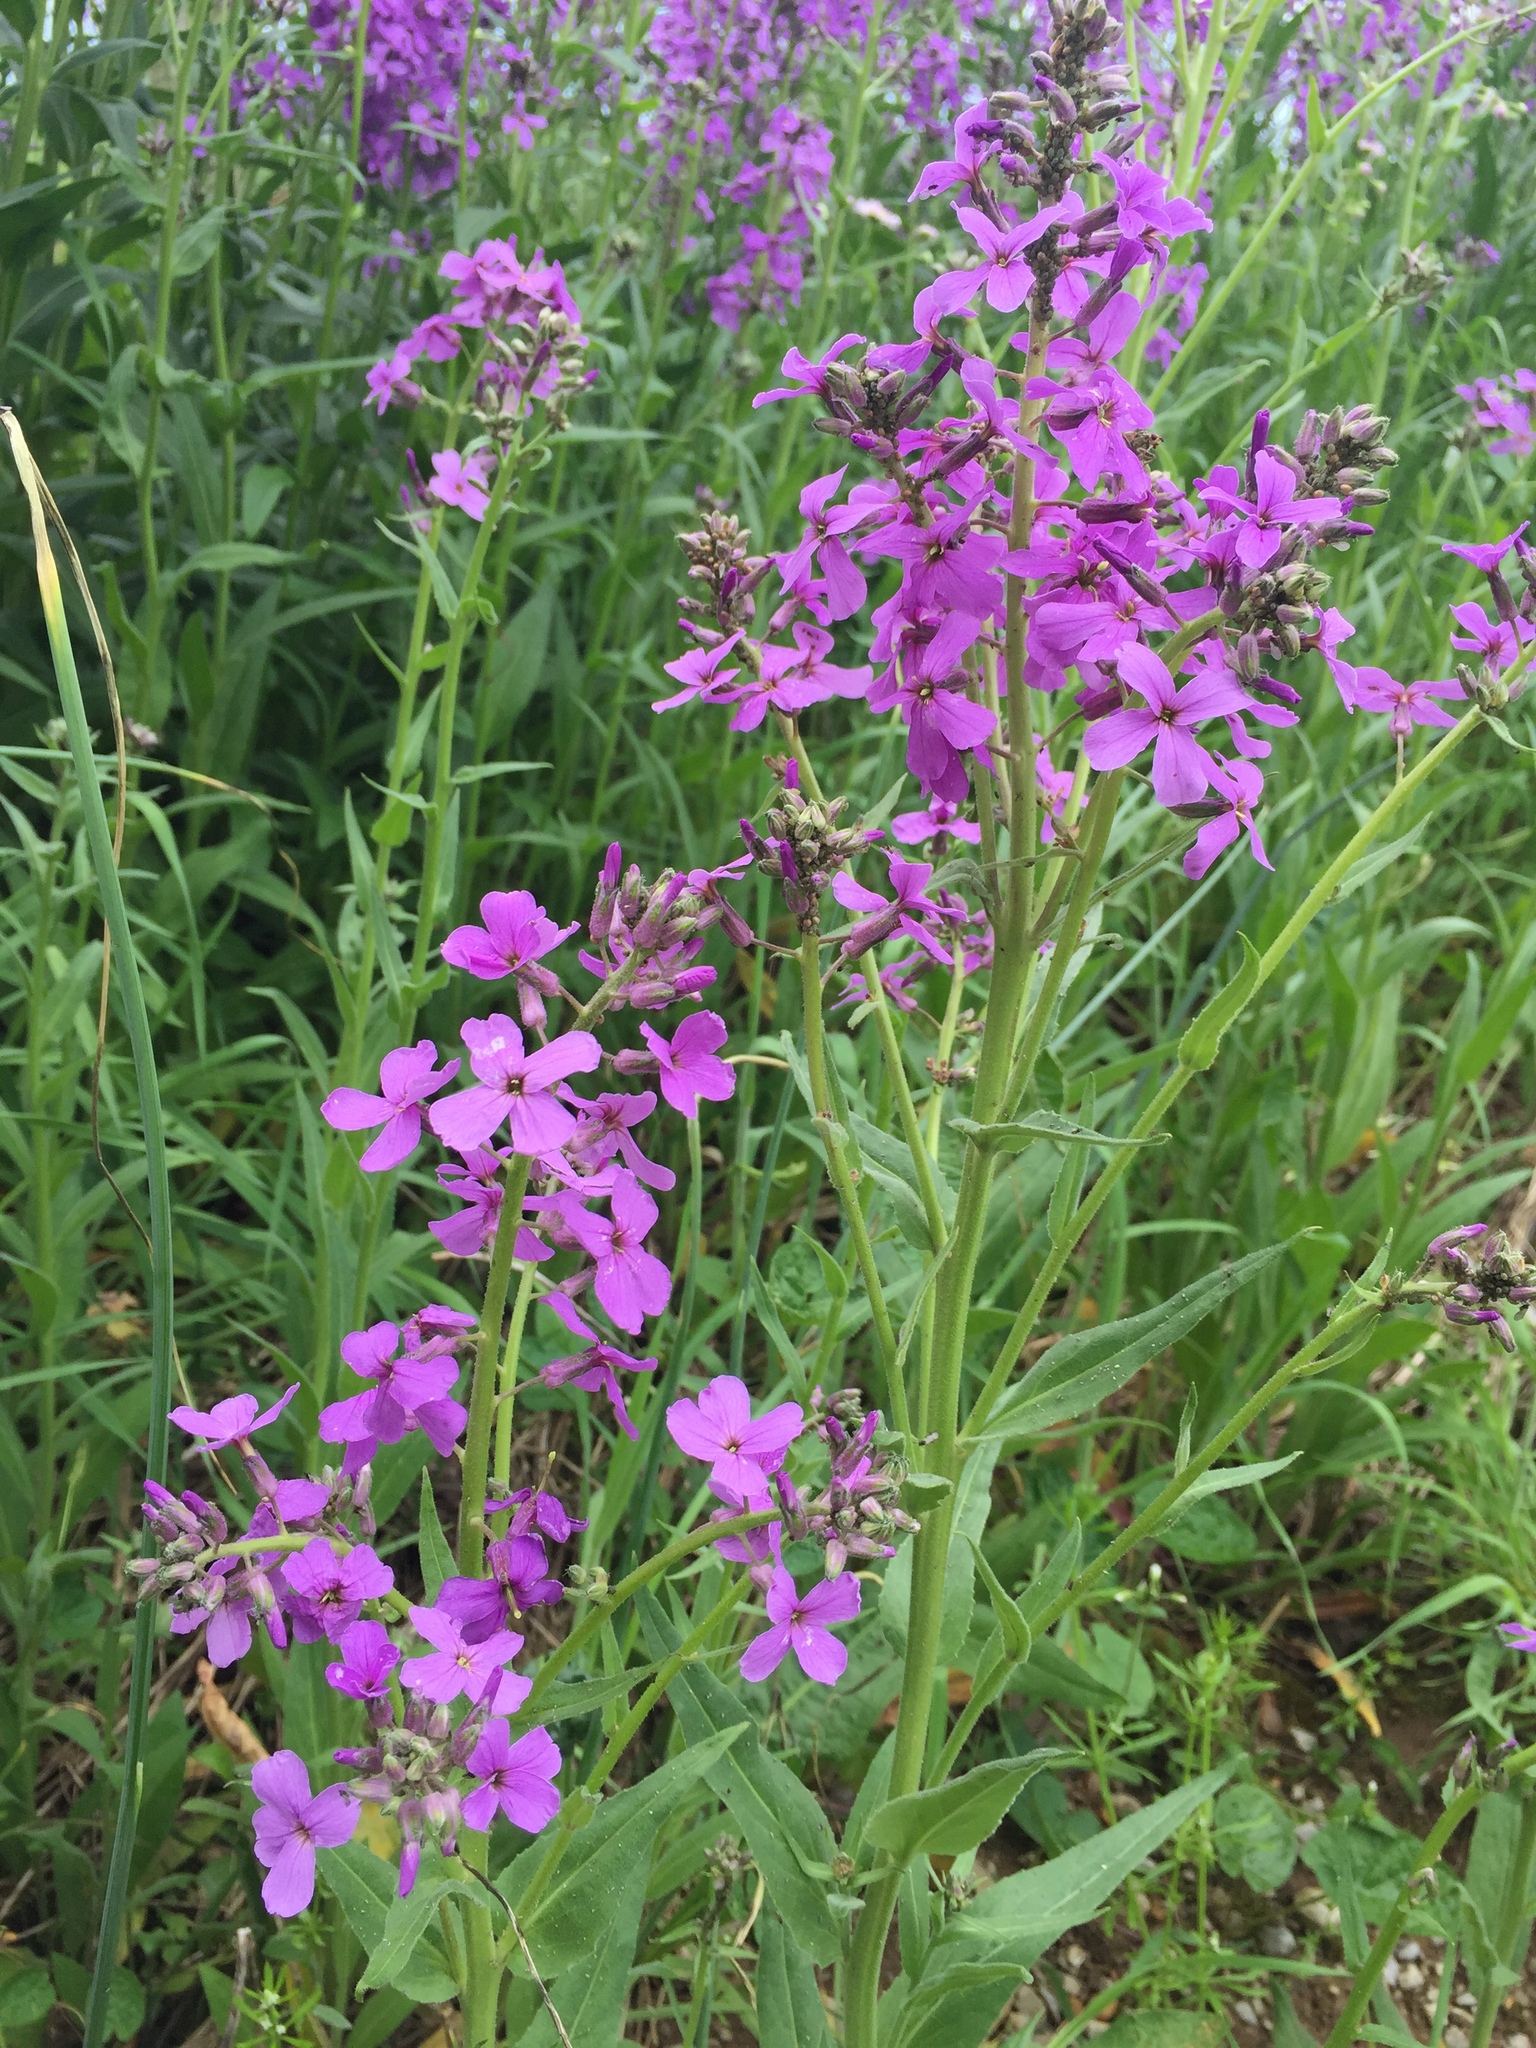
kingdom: Plantae
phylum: Tracheophyta
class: Magnoliopsida
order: Brassicales
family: Brassicaceae
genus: Hesperis
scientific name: Hesperis matronalis
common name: Dame's-violet
